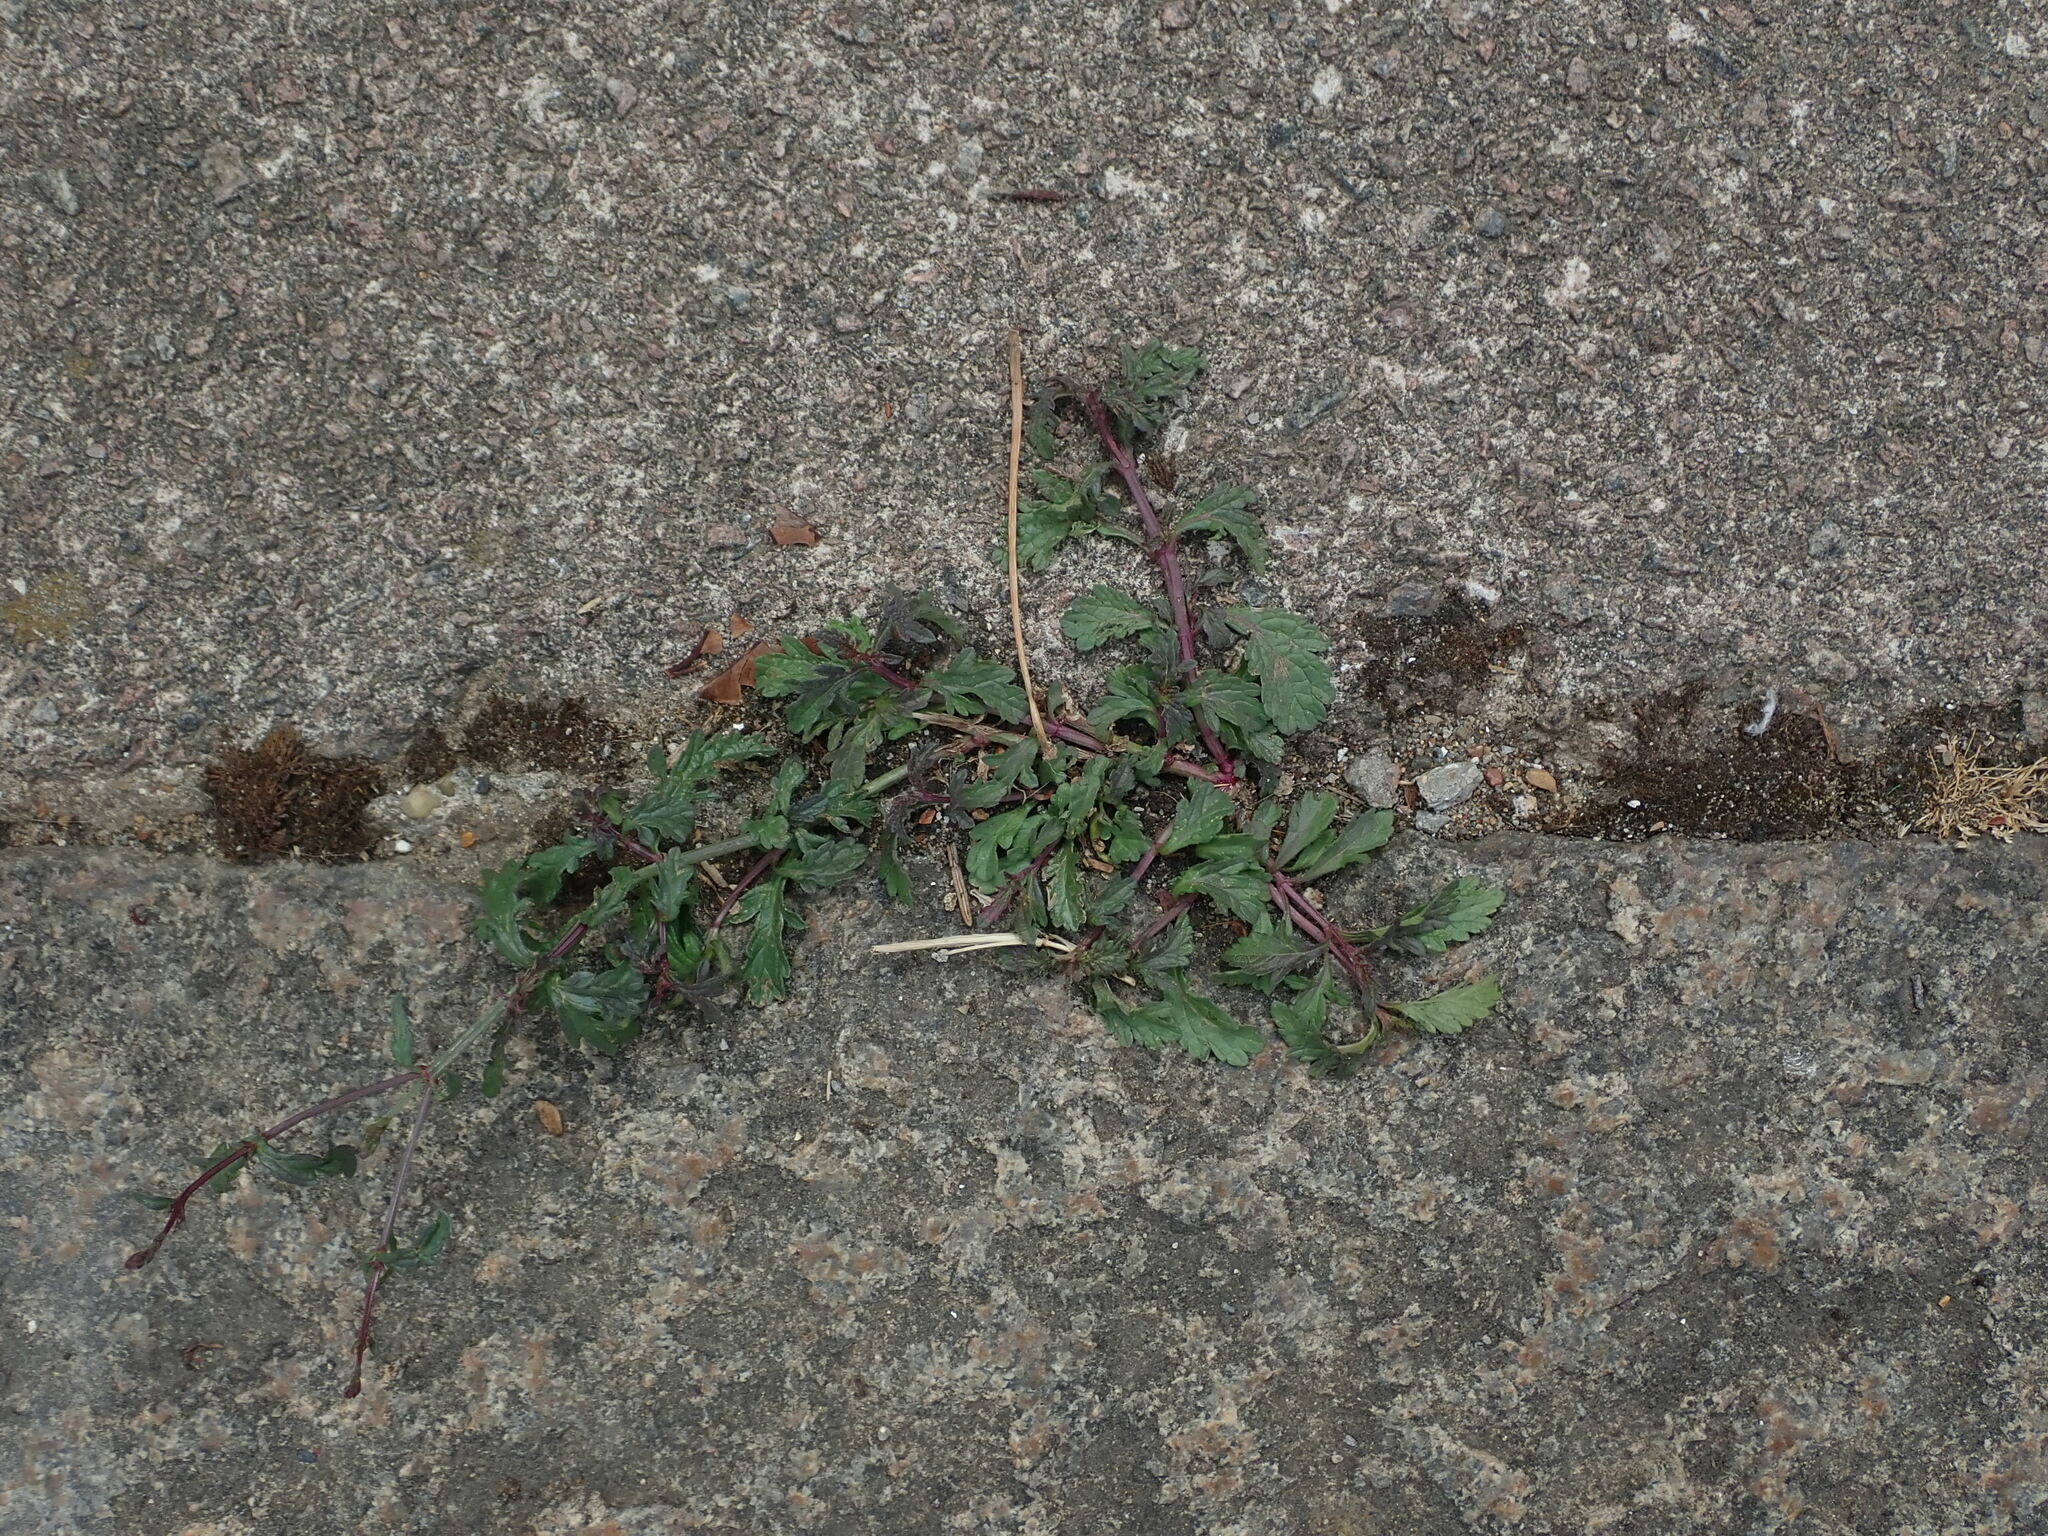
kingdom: Plantae
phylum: Tracheophyta
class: Magnoliopsida
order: Lamiales
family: Verbenaceae
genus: Verbena
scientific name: Verbena officinalis
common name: Vervain
